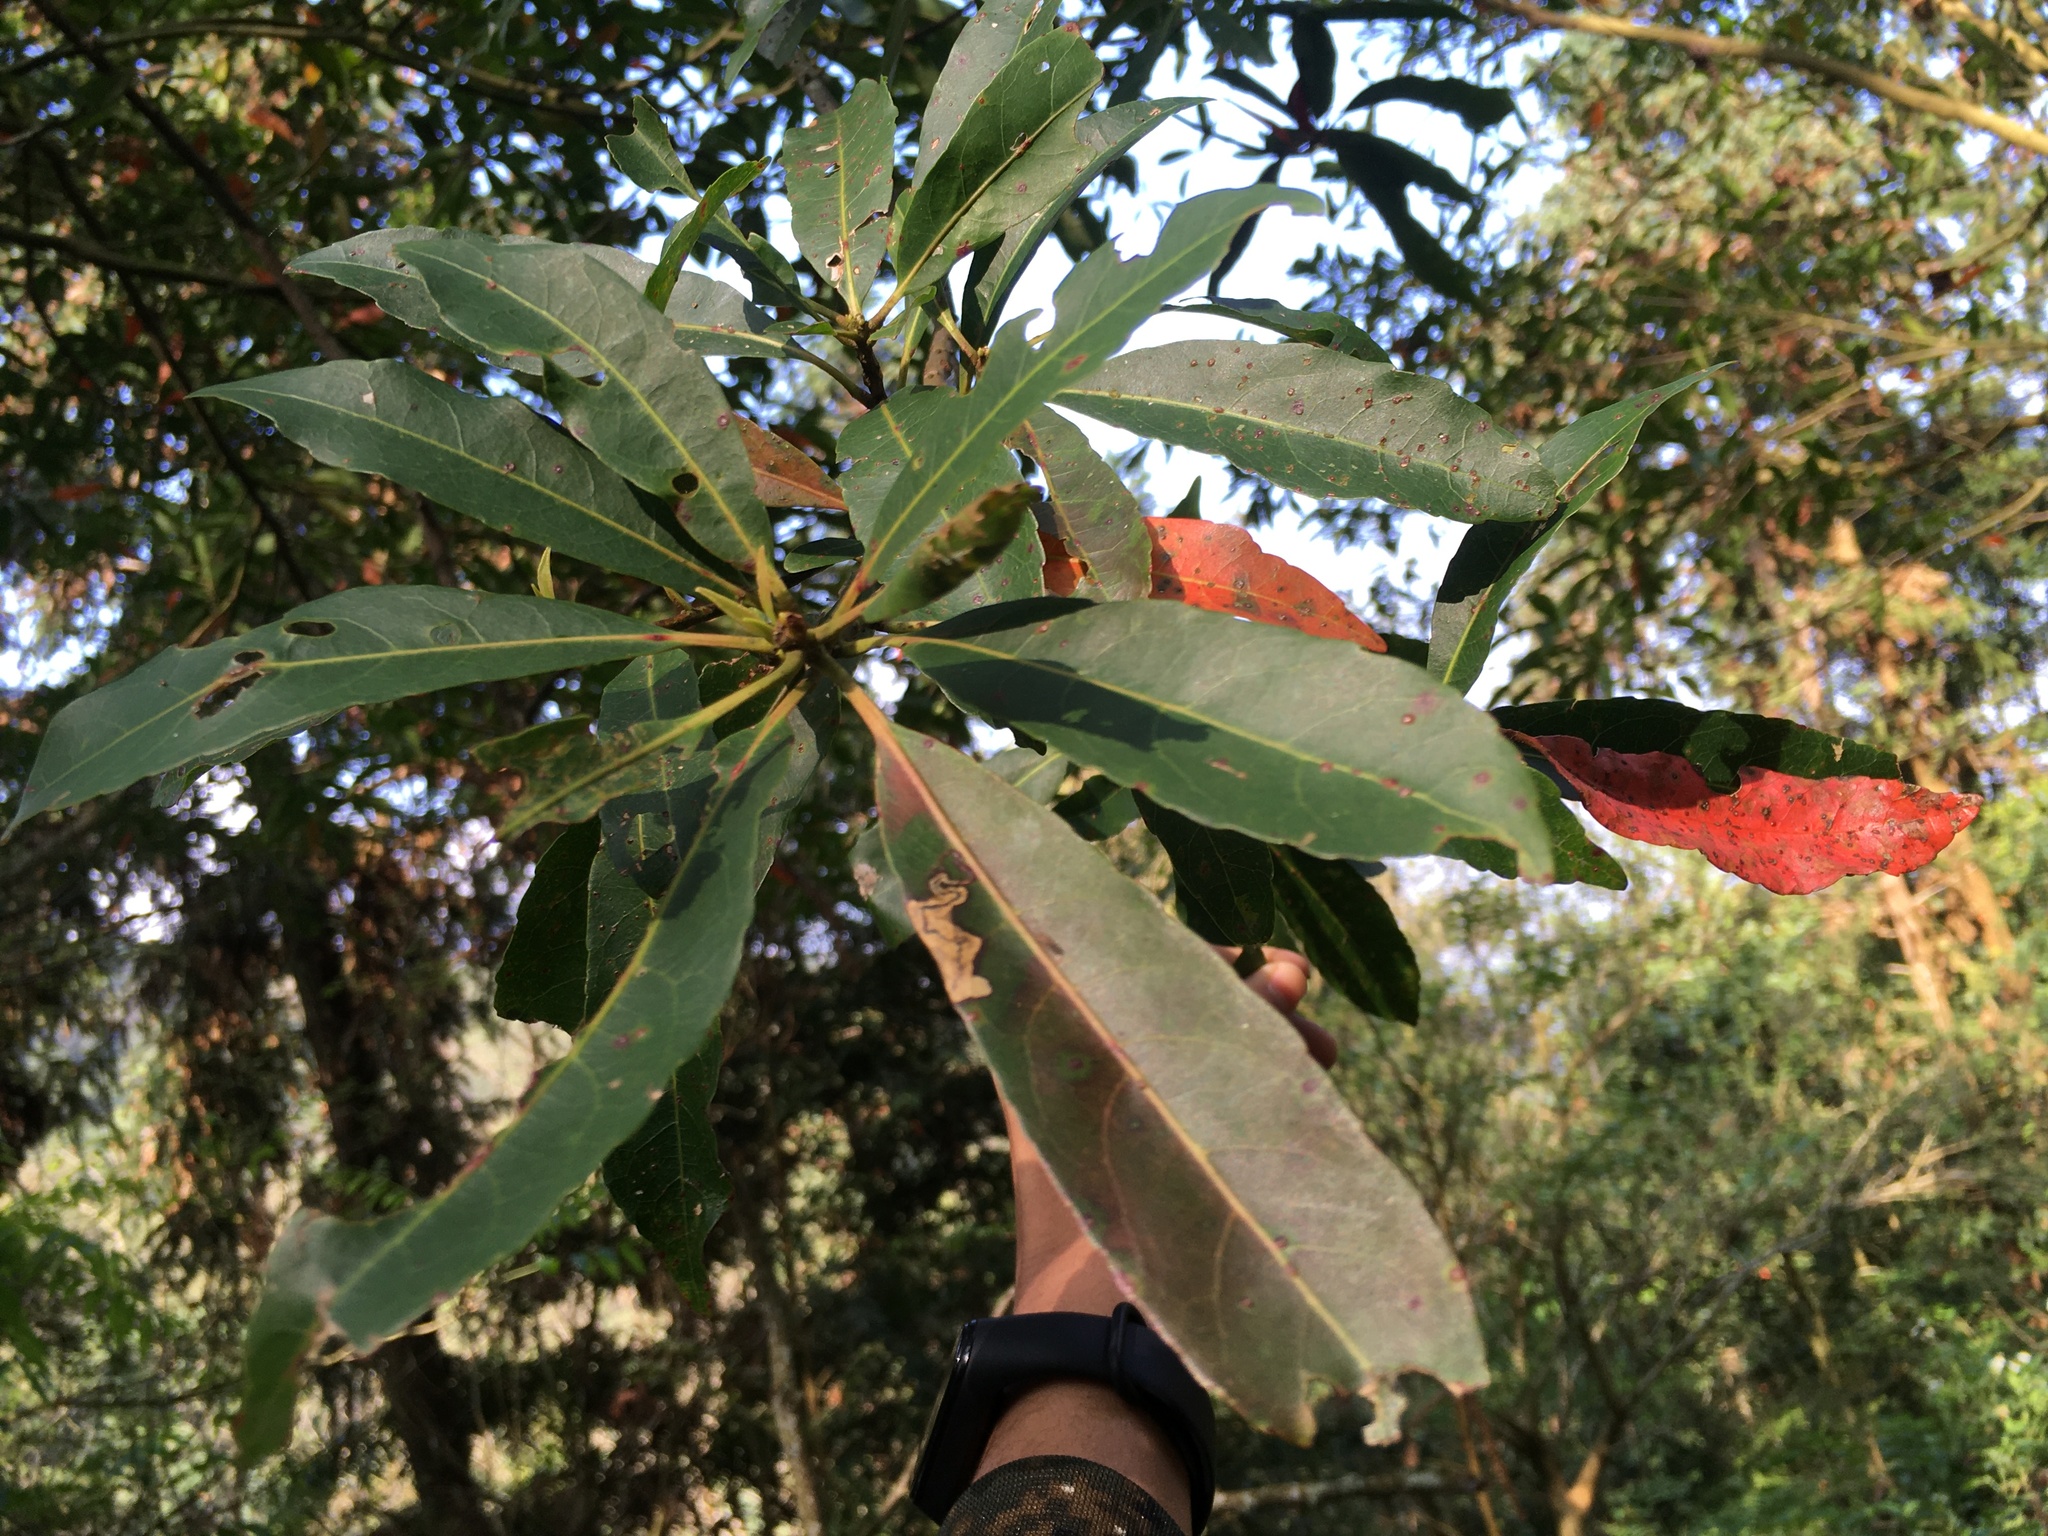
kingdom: Plantae
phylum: Tracheophyta
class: Magnoliopsida
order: Oxalidales
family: Elaeocarpaceae
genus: Elaeocarpus
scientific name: Elaeocarpus decipiens
